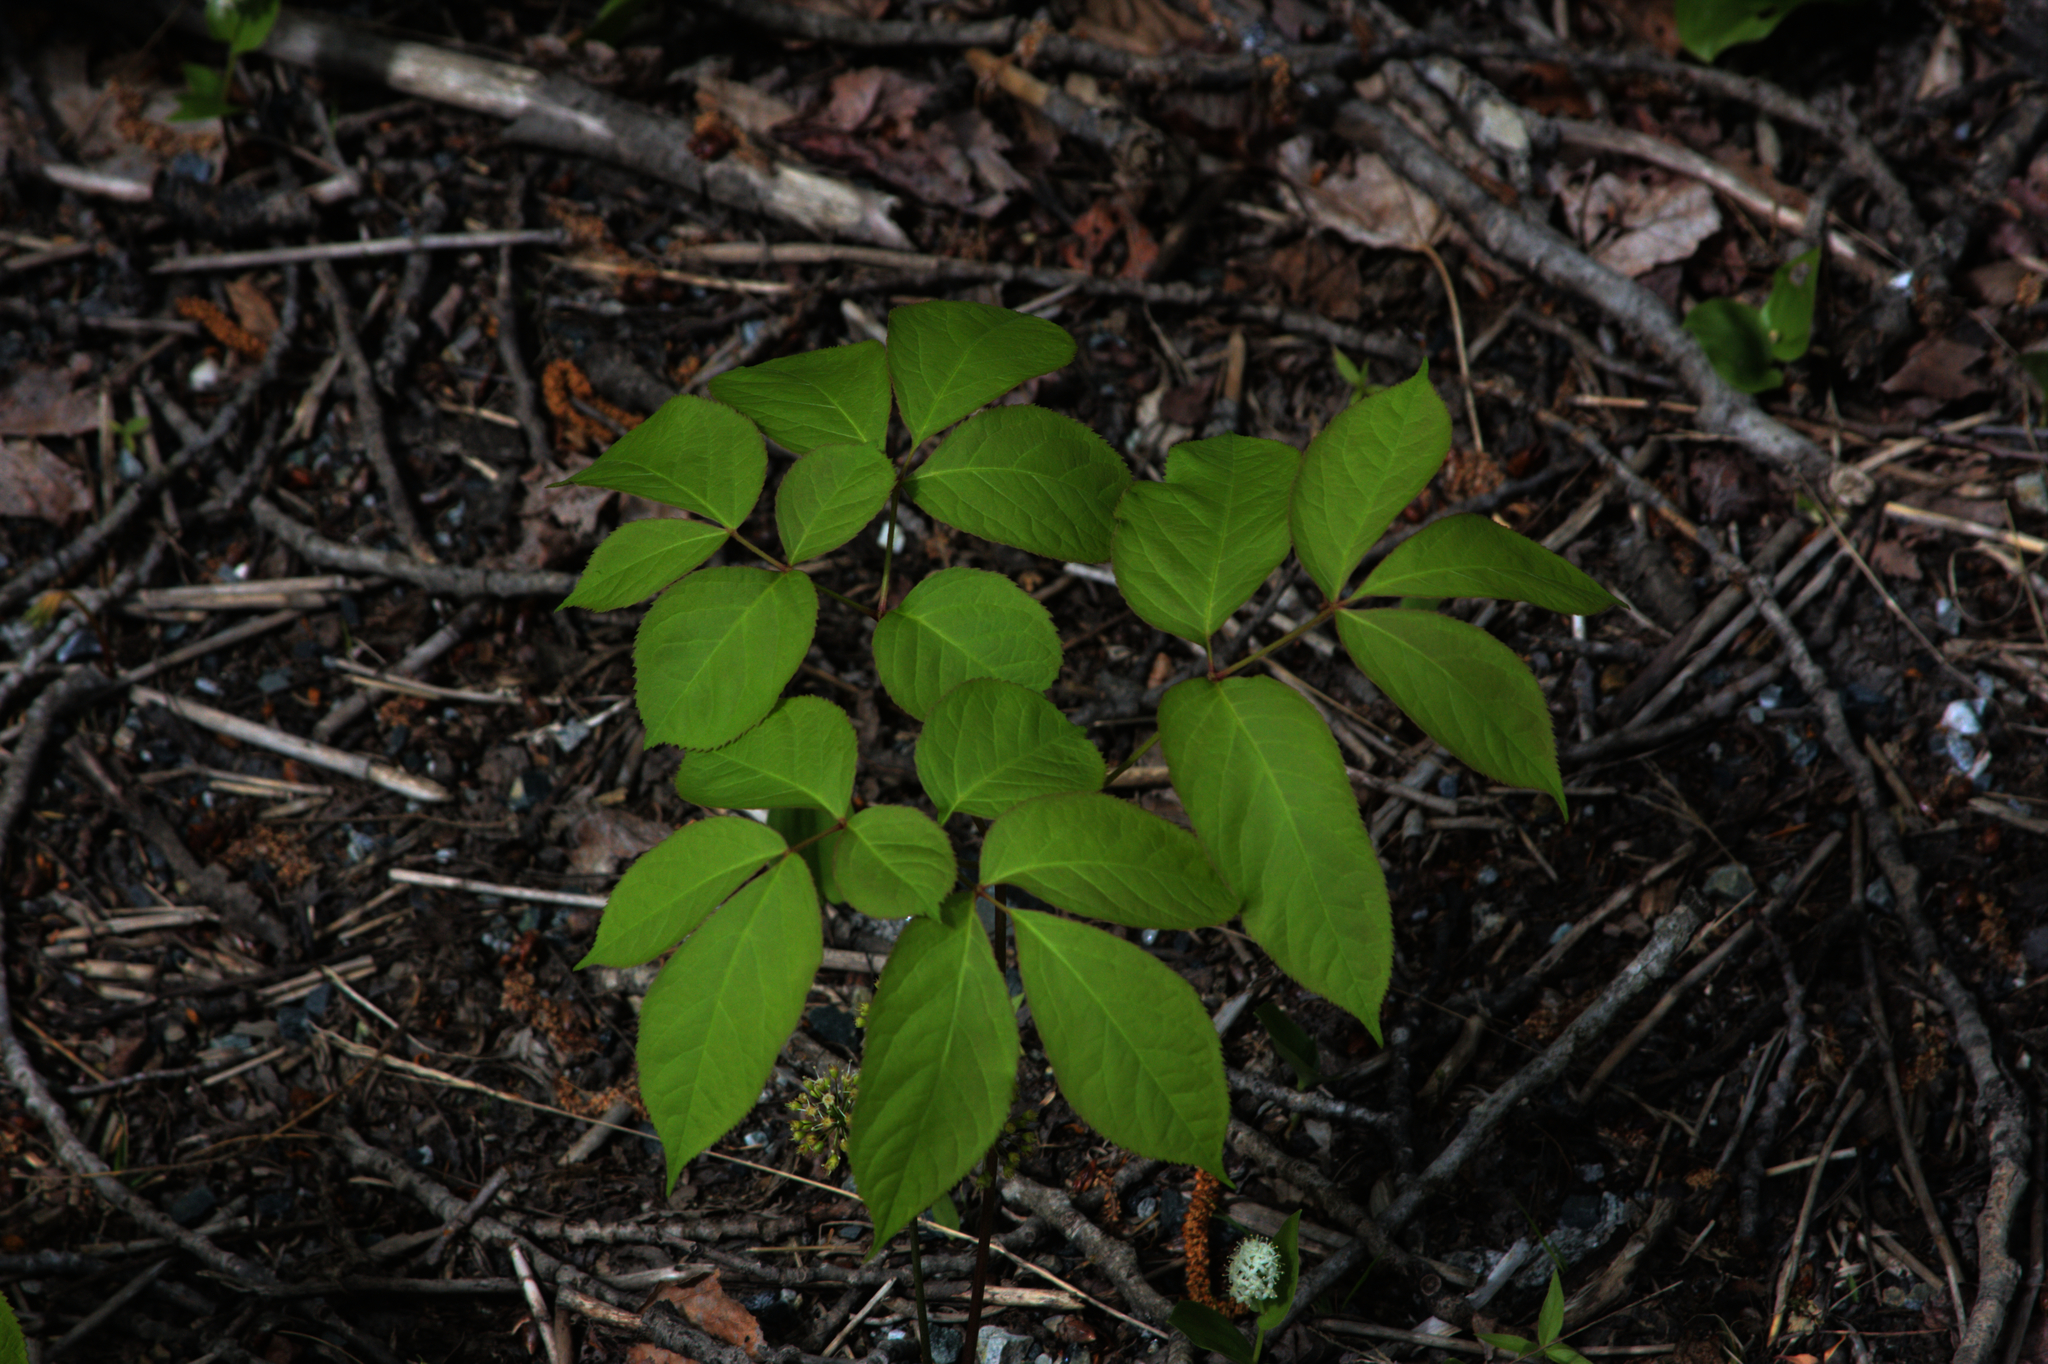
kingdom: Plantae
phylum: Tracheophyta
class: Magnoliopsida
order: Apiales
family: Araliaceae
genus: Aralia
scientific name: Aralia nudicaulis
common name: Wild sarsaparilla
